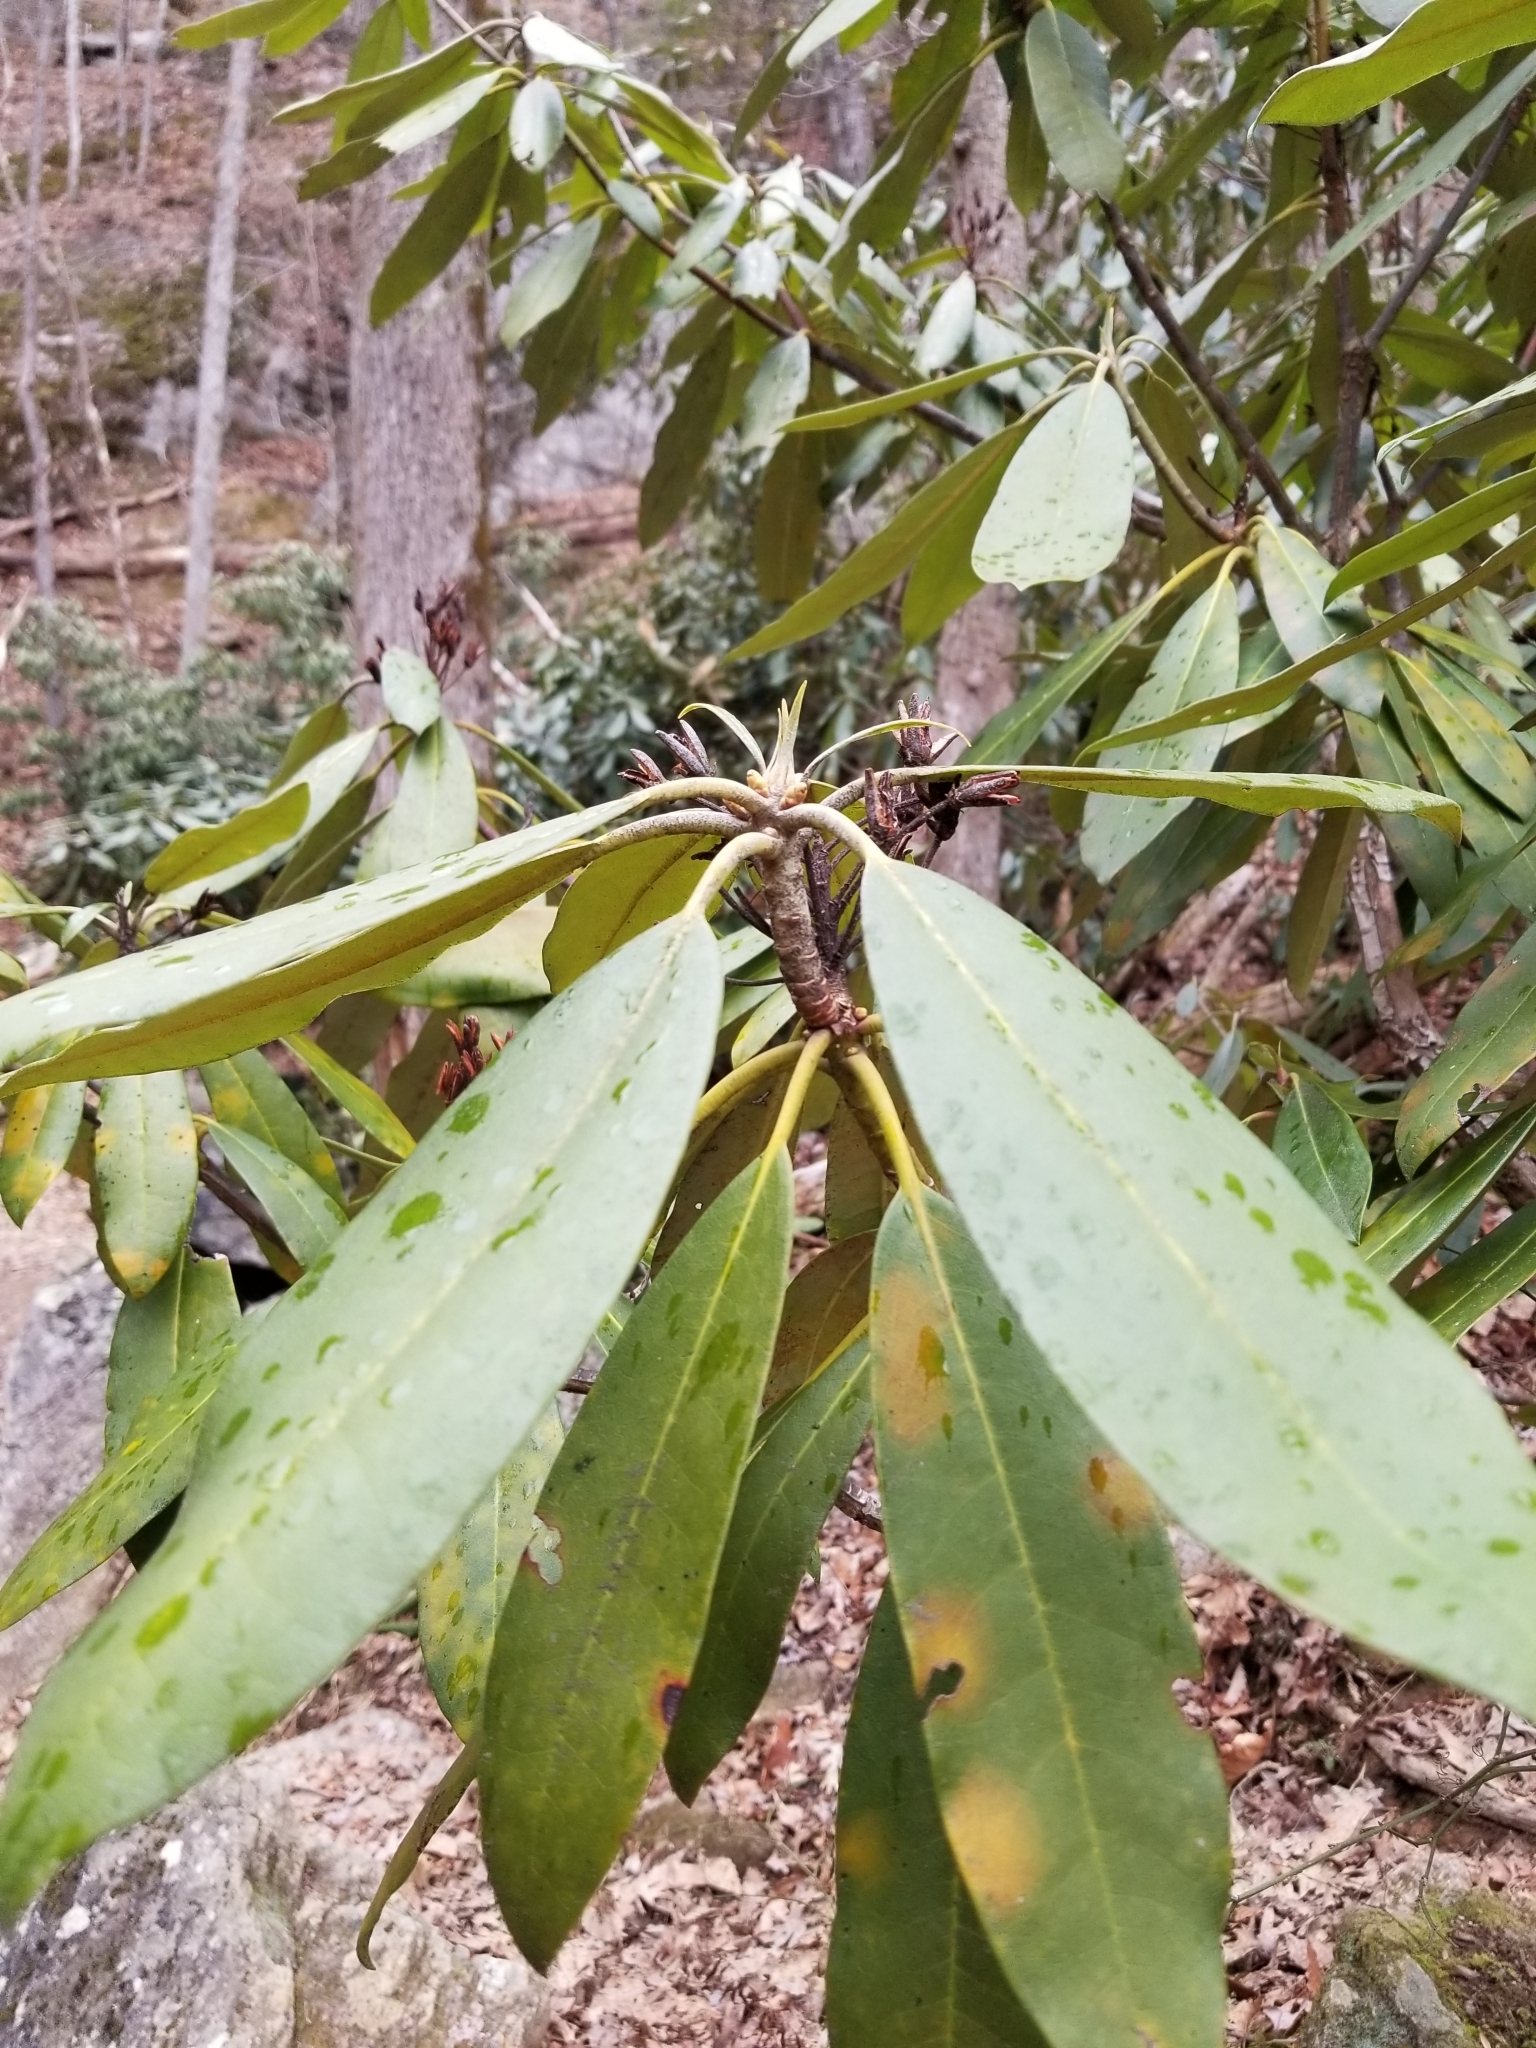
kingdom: Plantae
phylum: Tracheophyta
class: Magnoliopsida
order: Ericales
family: Ericaceae
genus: Rhododendron
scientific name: Rhododendron maximum
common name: Great rhododendron
